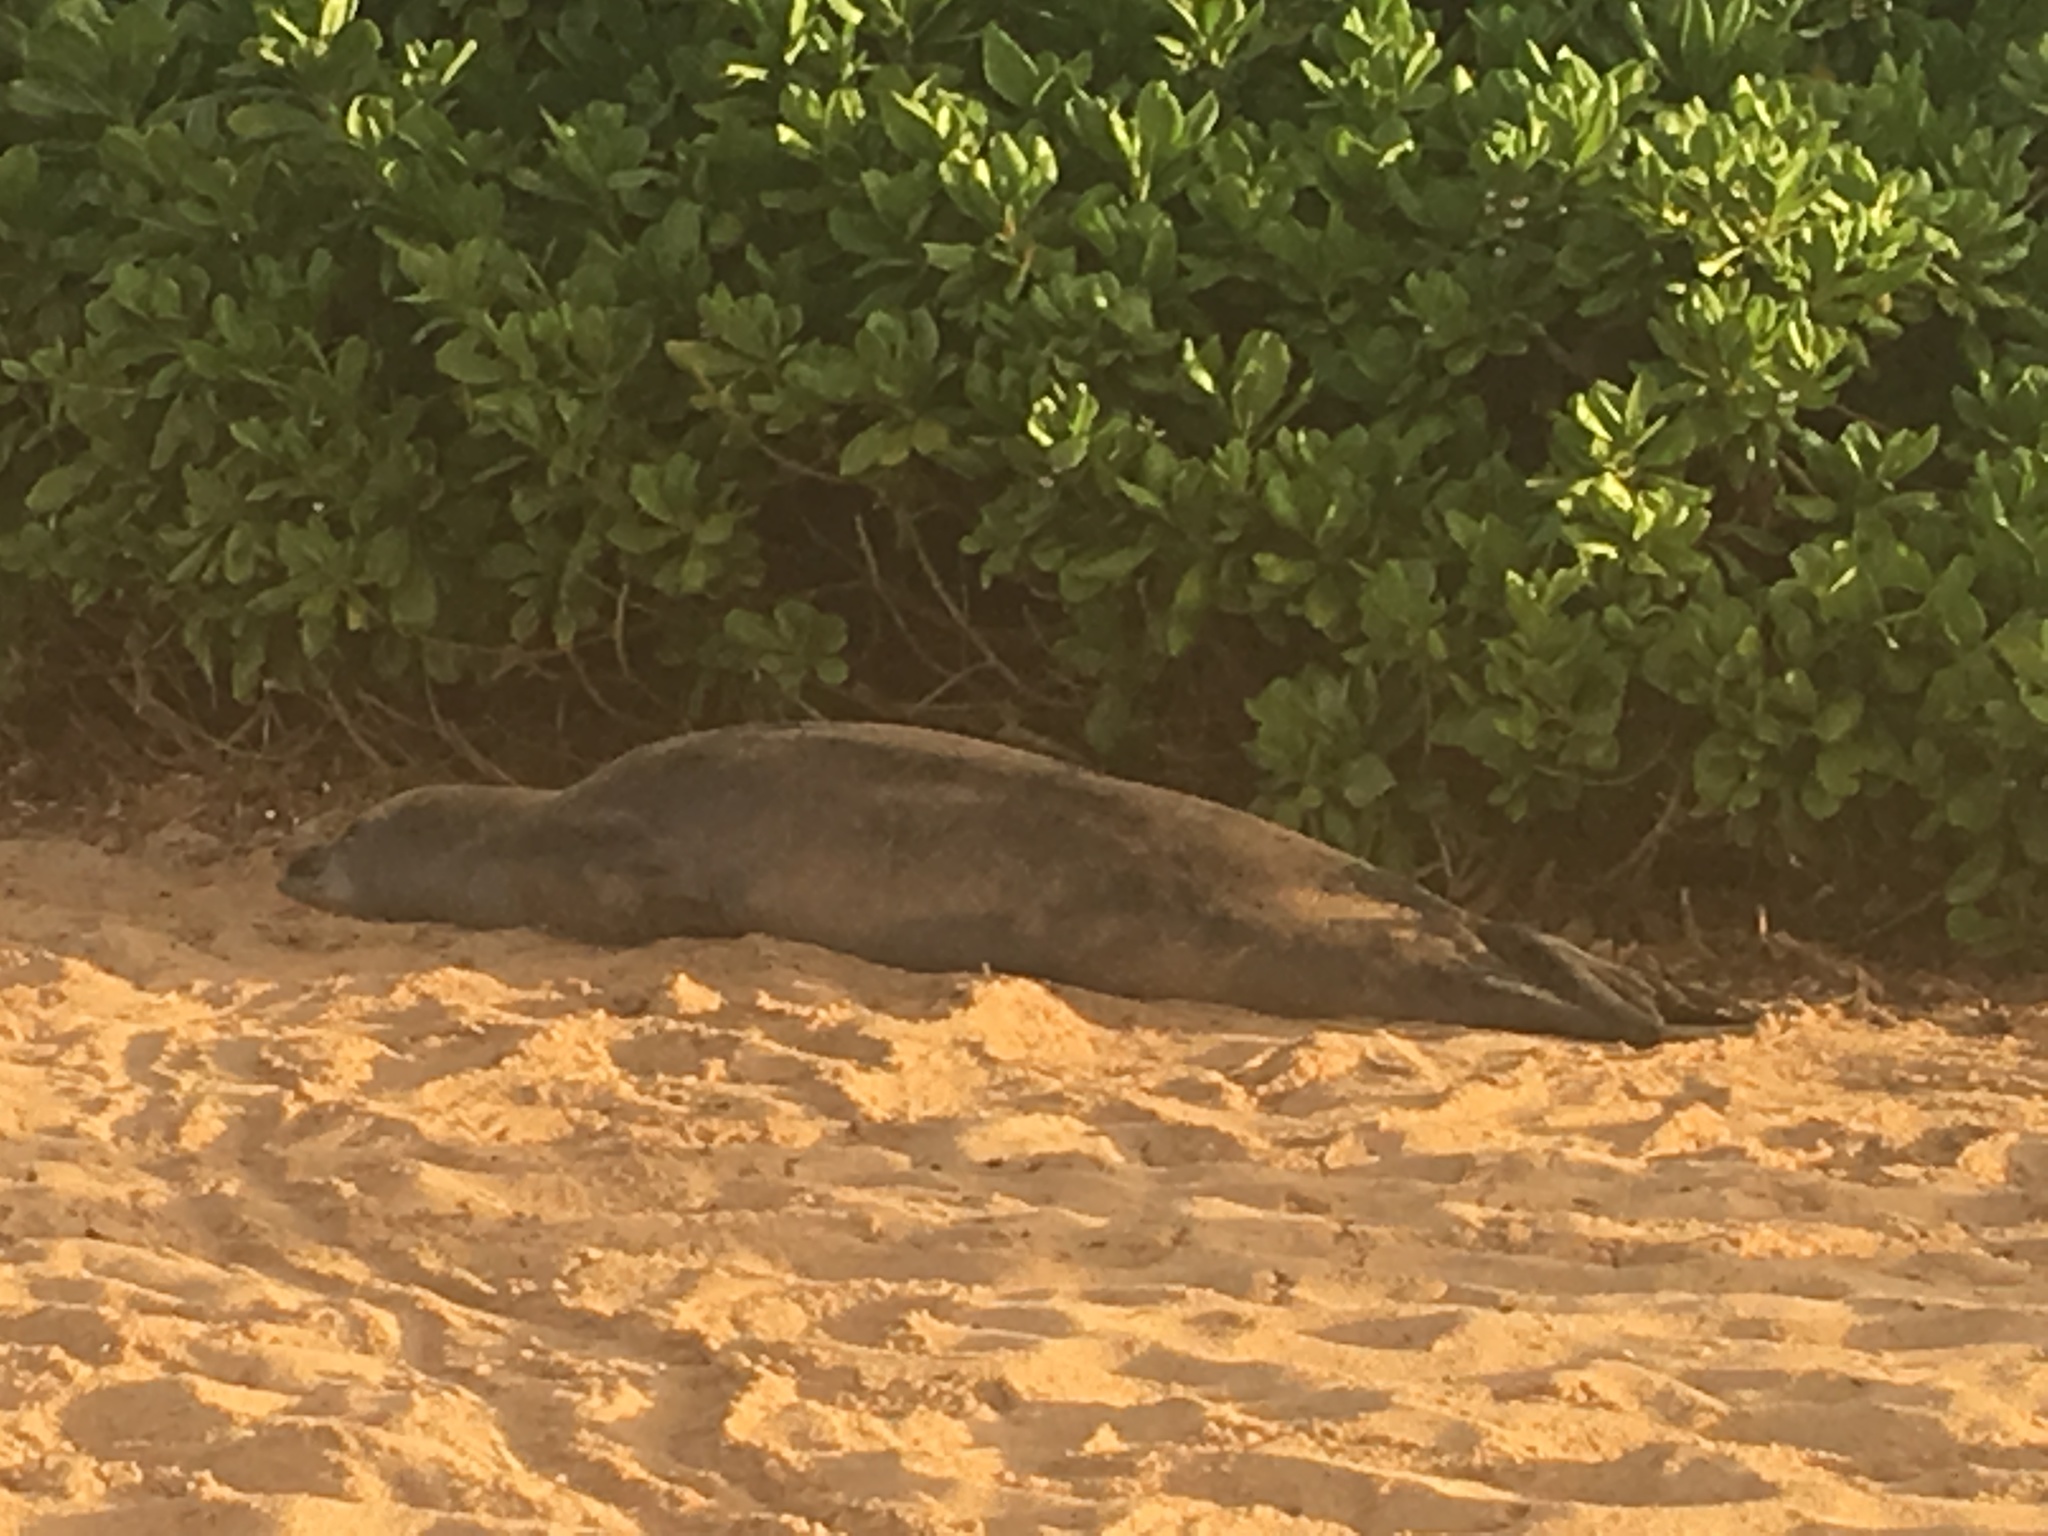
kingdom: Animalia
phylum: Chordata
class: Mammalia
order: Carnivora
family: Phocidae
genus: Neomonachus
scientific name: Neomonachus schauinslandi
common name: Hawaiian monk seal
